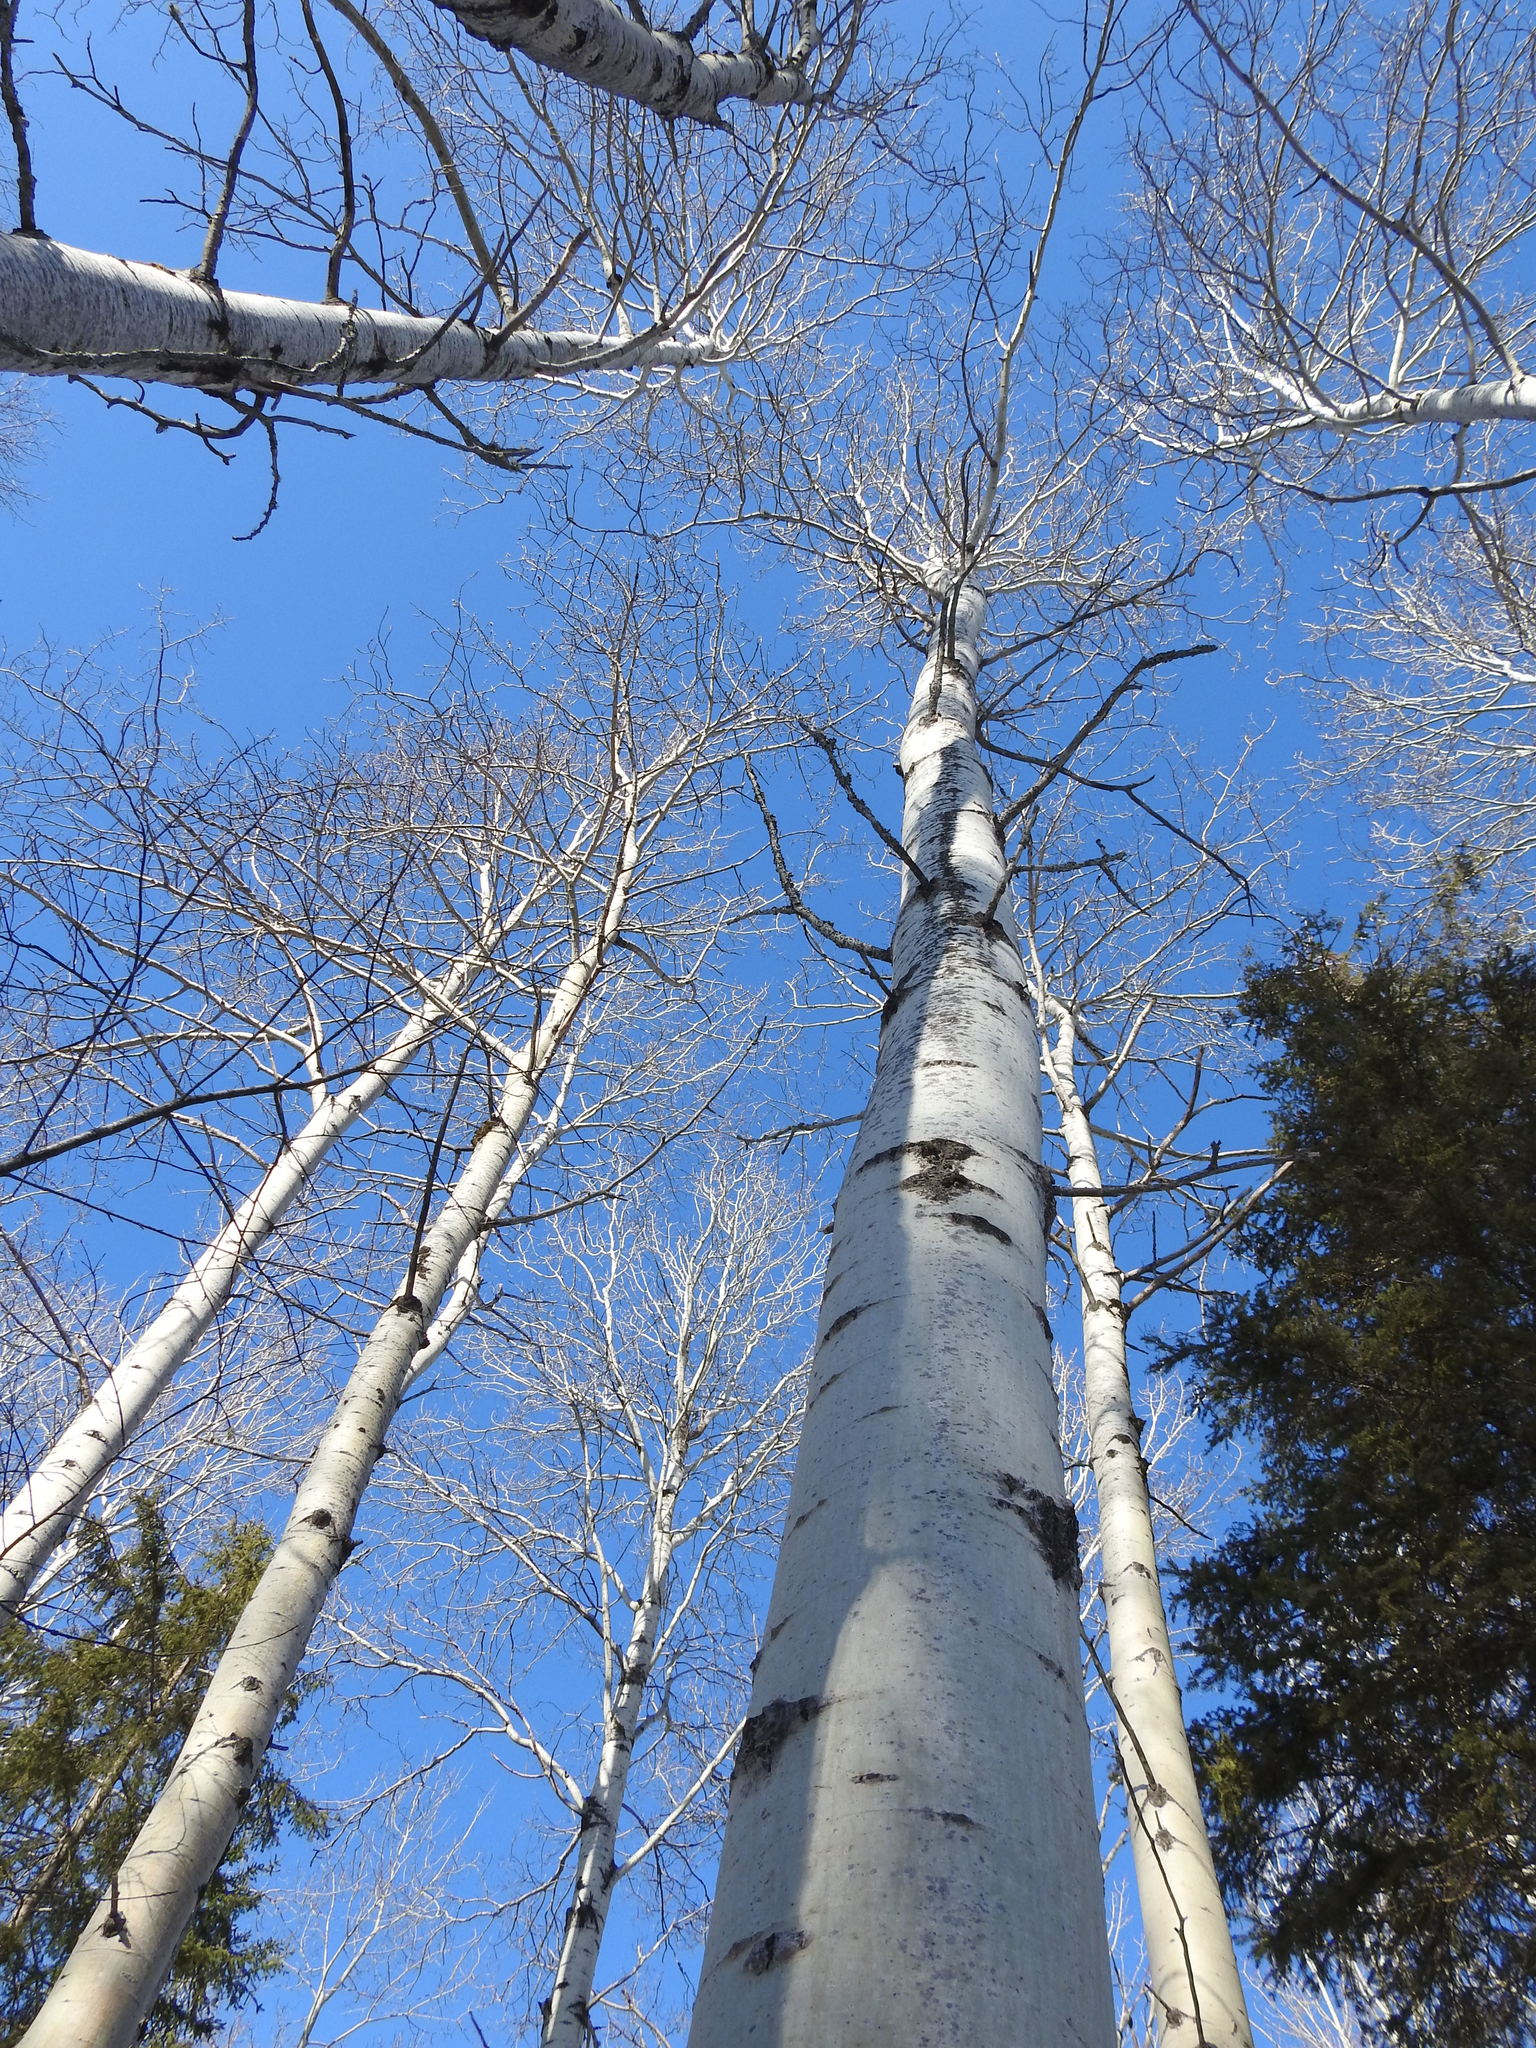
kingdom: Plantae
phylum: Tracheophyta
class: Magnoliopsida
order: Malpighiales
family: Salicaceae
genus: Populus
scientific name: Populus tremuloides
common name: Quaking aspen
